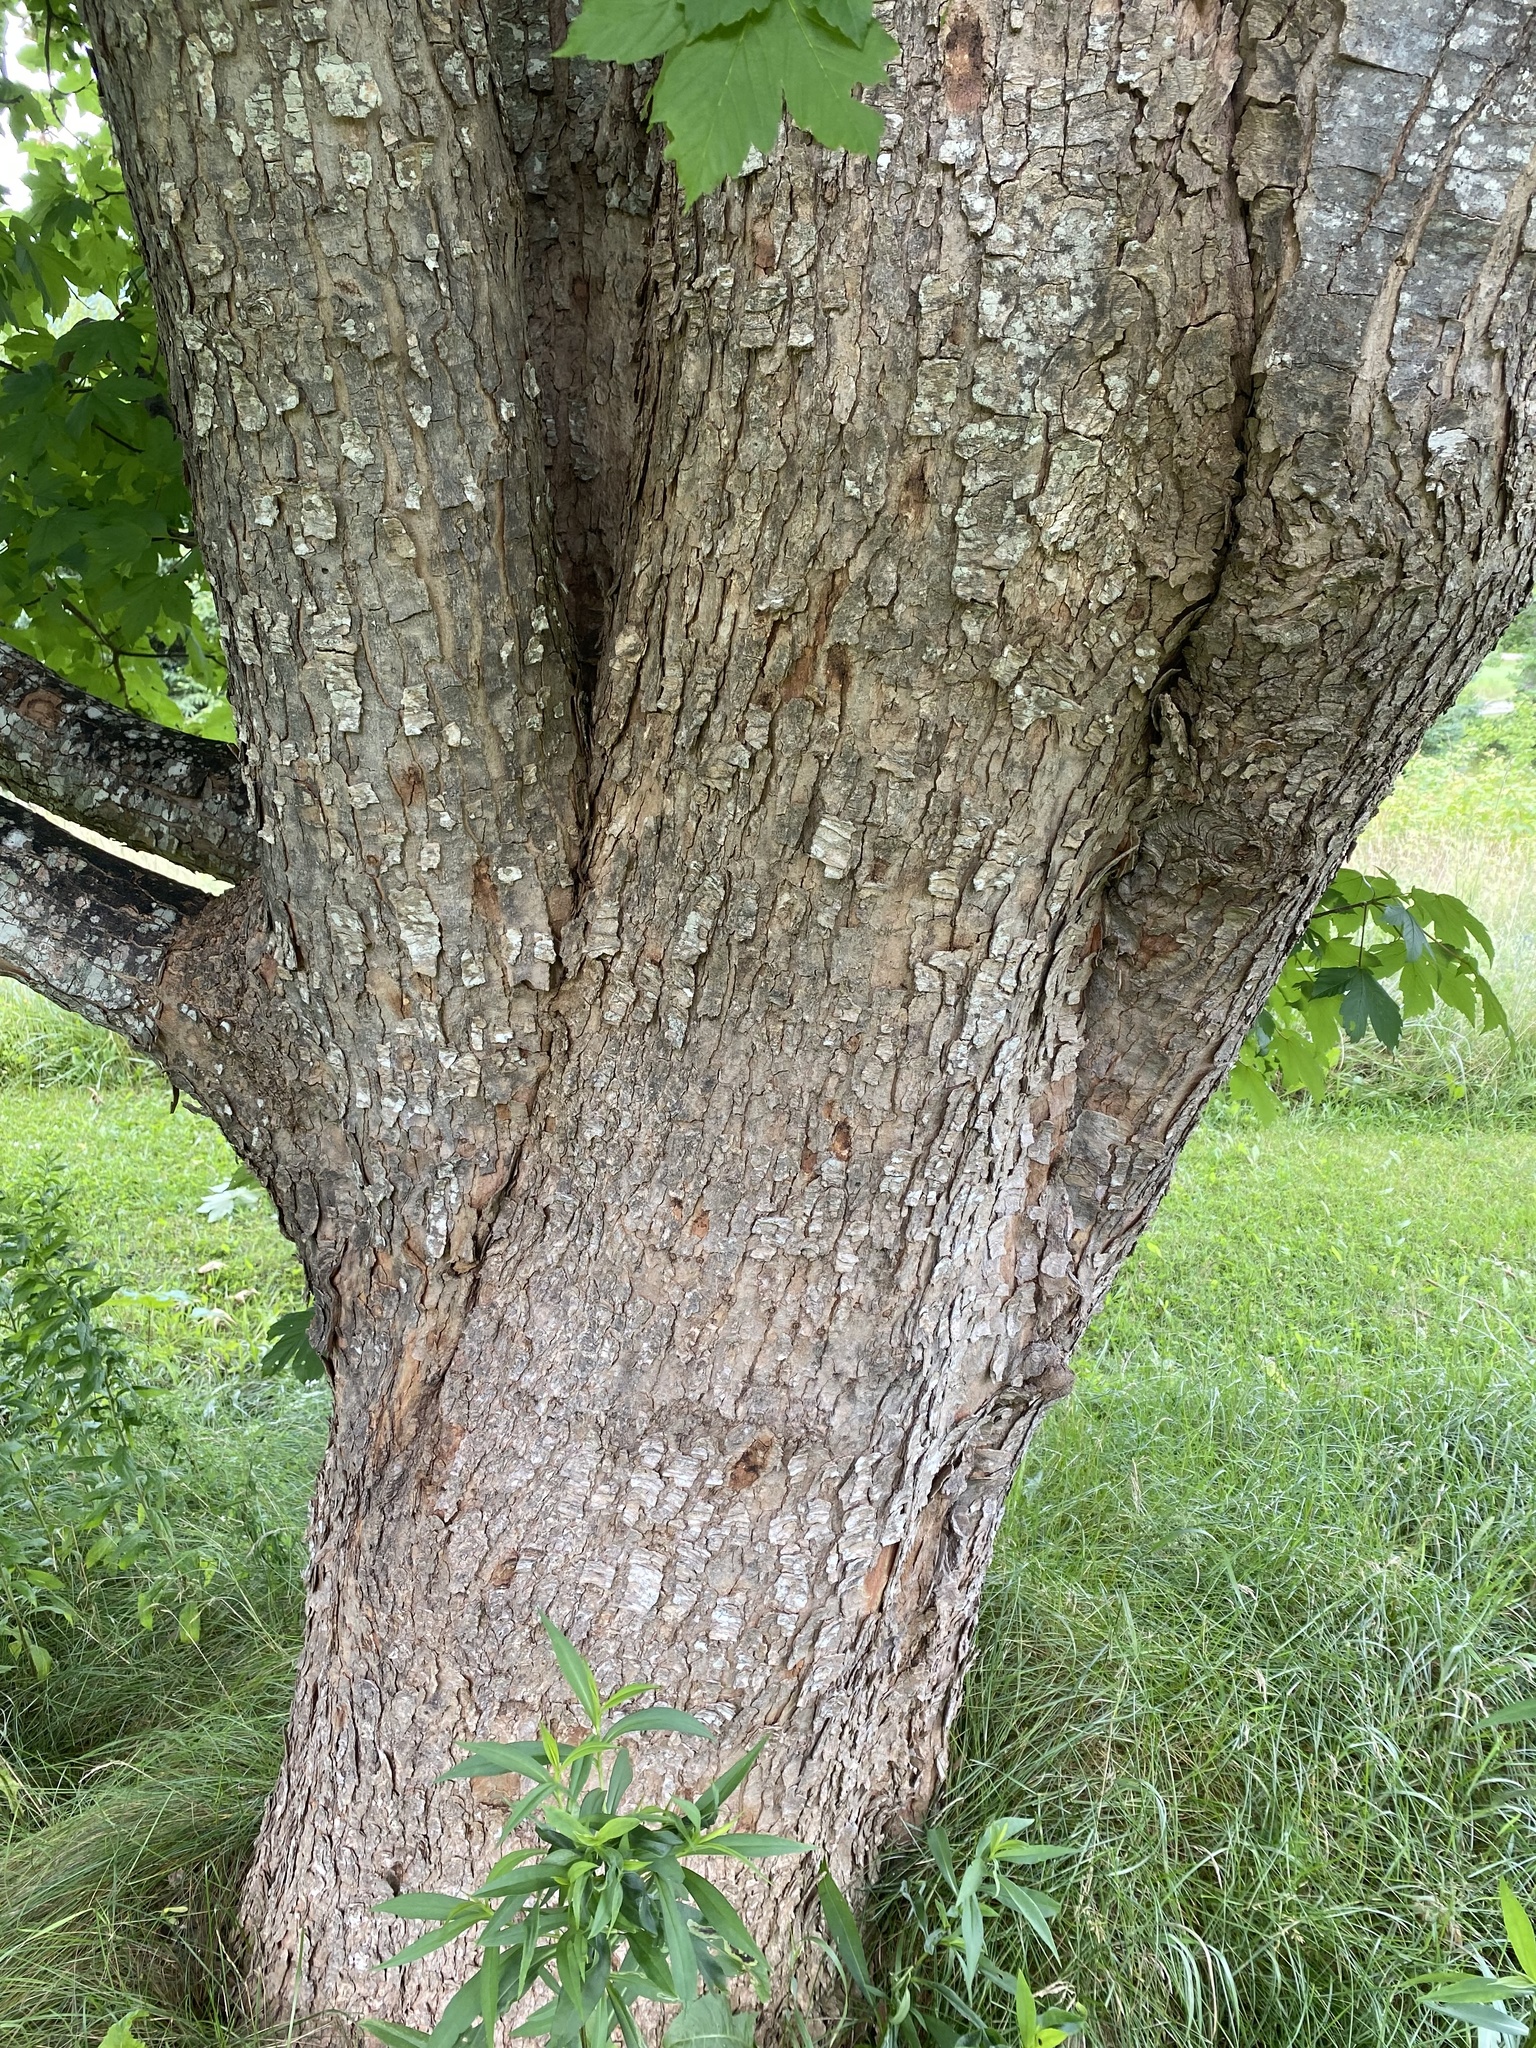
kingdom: Plantae
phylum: Tracheophyta
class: Magnoliopsida
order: Sapindales
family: Sapindaceae
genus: Acer
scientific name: Acer pseudoplatanus
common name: Sycamore
